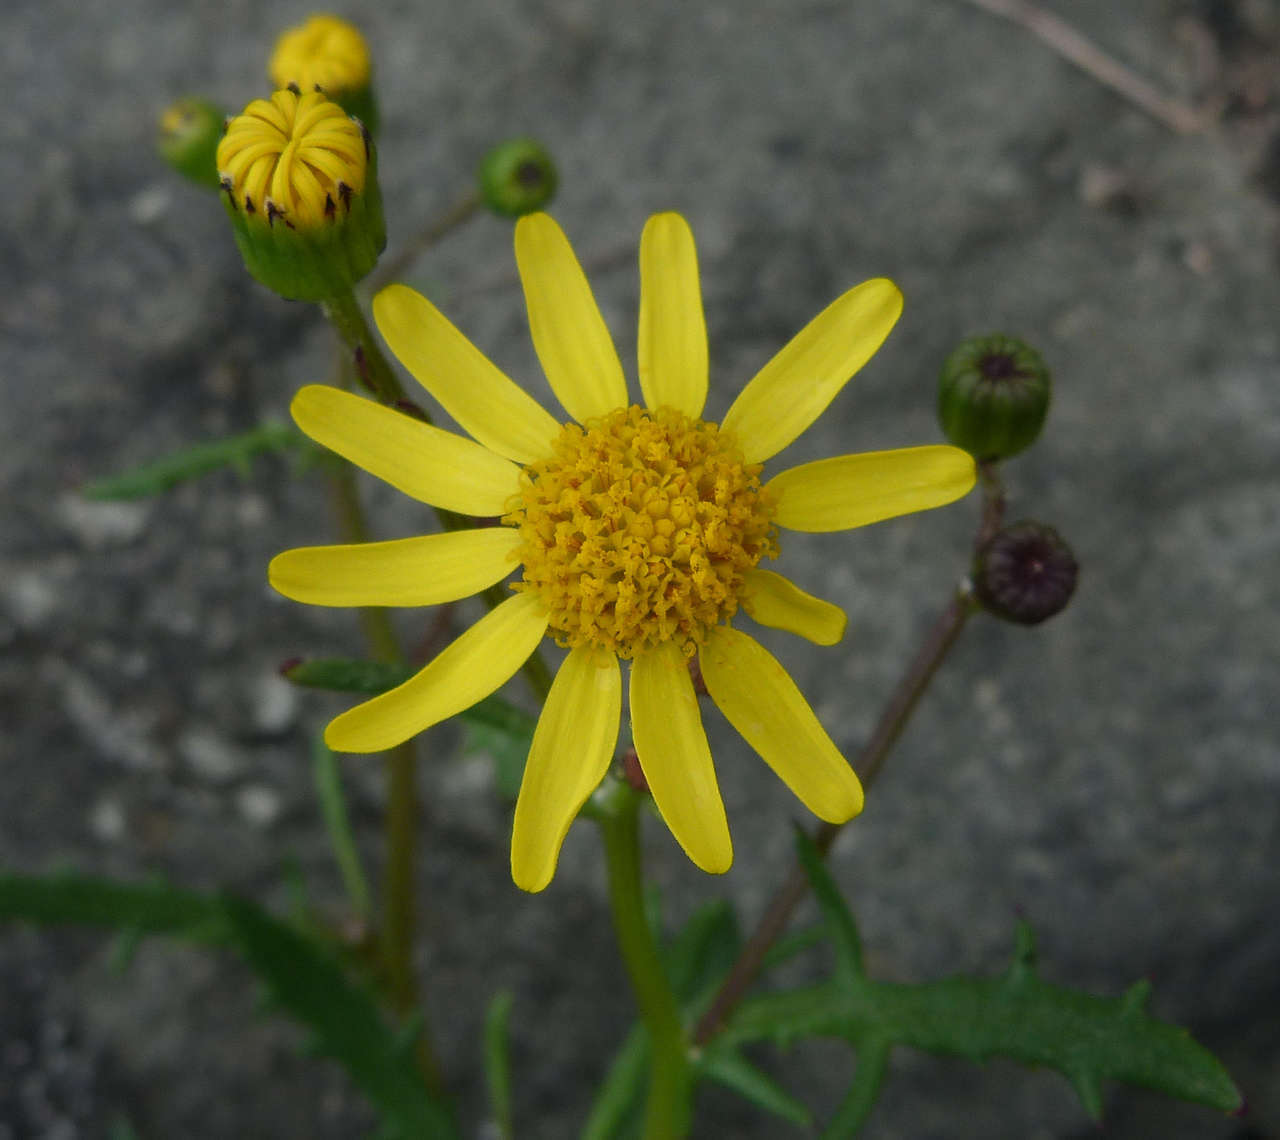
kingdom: Plantae
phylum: Tracheophyta
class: Magnoliopsida
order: Asterales
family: Asteraceae
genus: Senecio
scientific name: Senecio pinnatifolius
